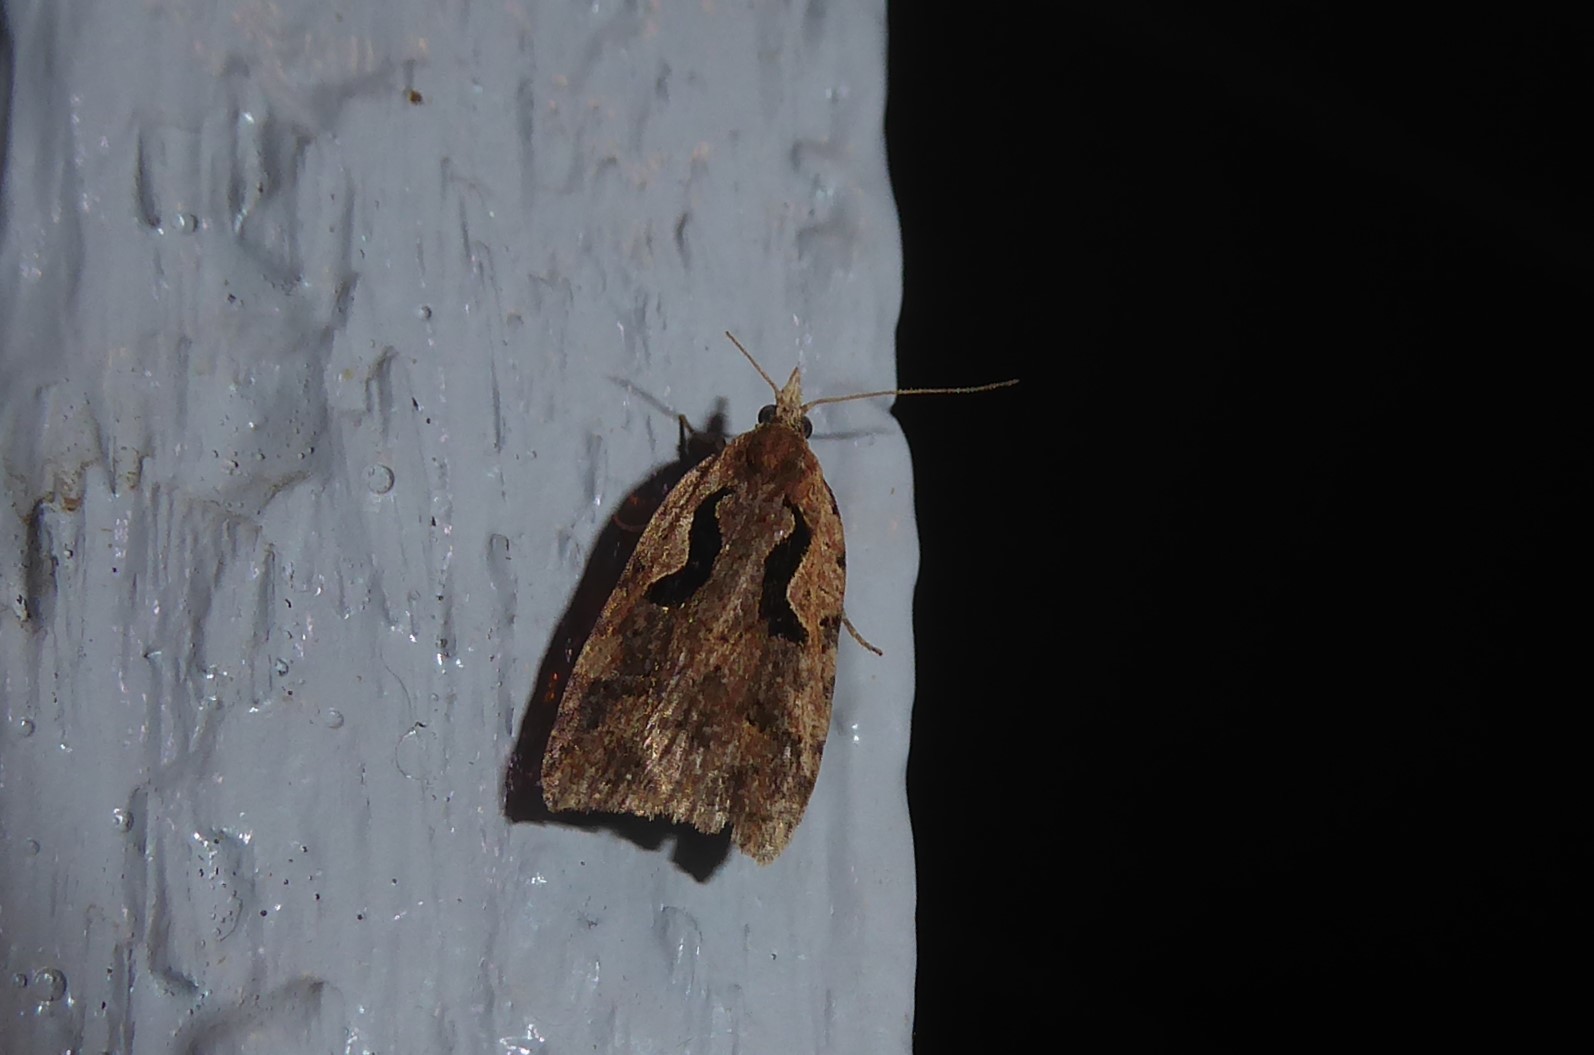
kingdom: Animalia
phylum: Arthropoda
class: Insecta
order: Lepidoptera
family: Tortricidae
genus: Cnephasia
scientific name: Cnephasia jactatana
